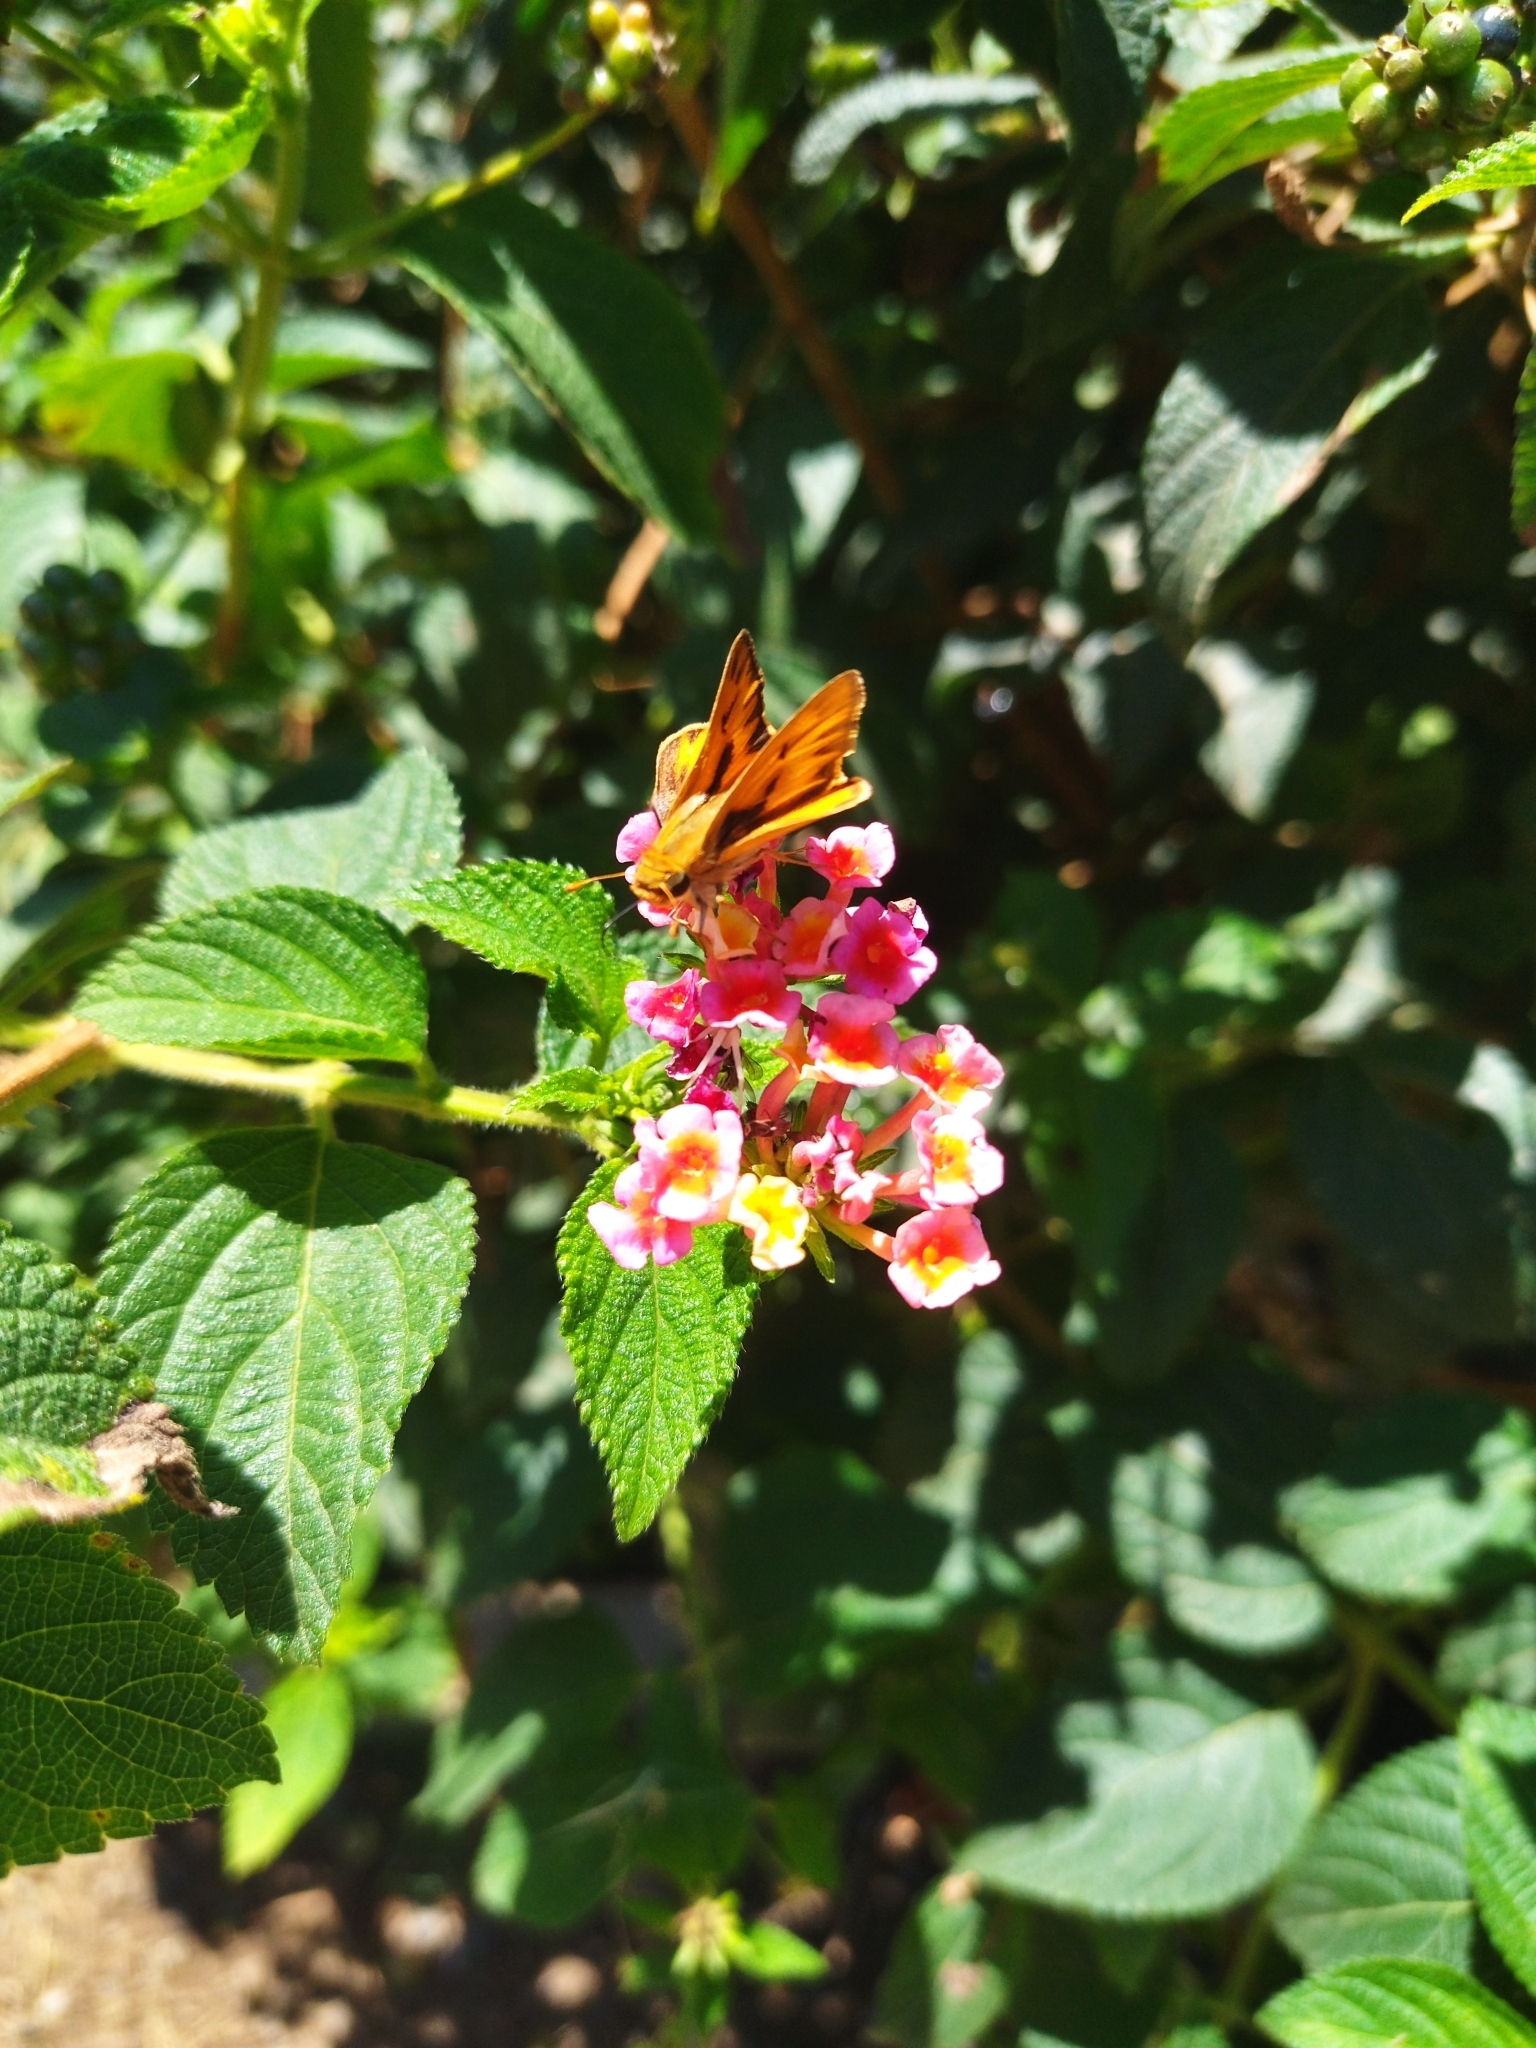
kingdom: Animalia
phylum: Arthropoda
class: Insecta
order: Lepidoptera
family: Hesperiidae
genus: Hylephila
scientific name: Hylephila phyleus
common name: Fiery skipper
